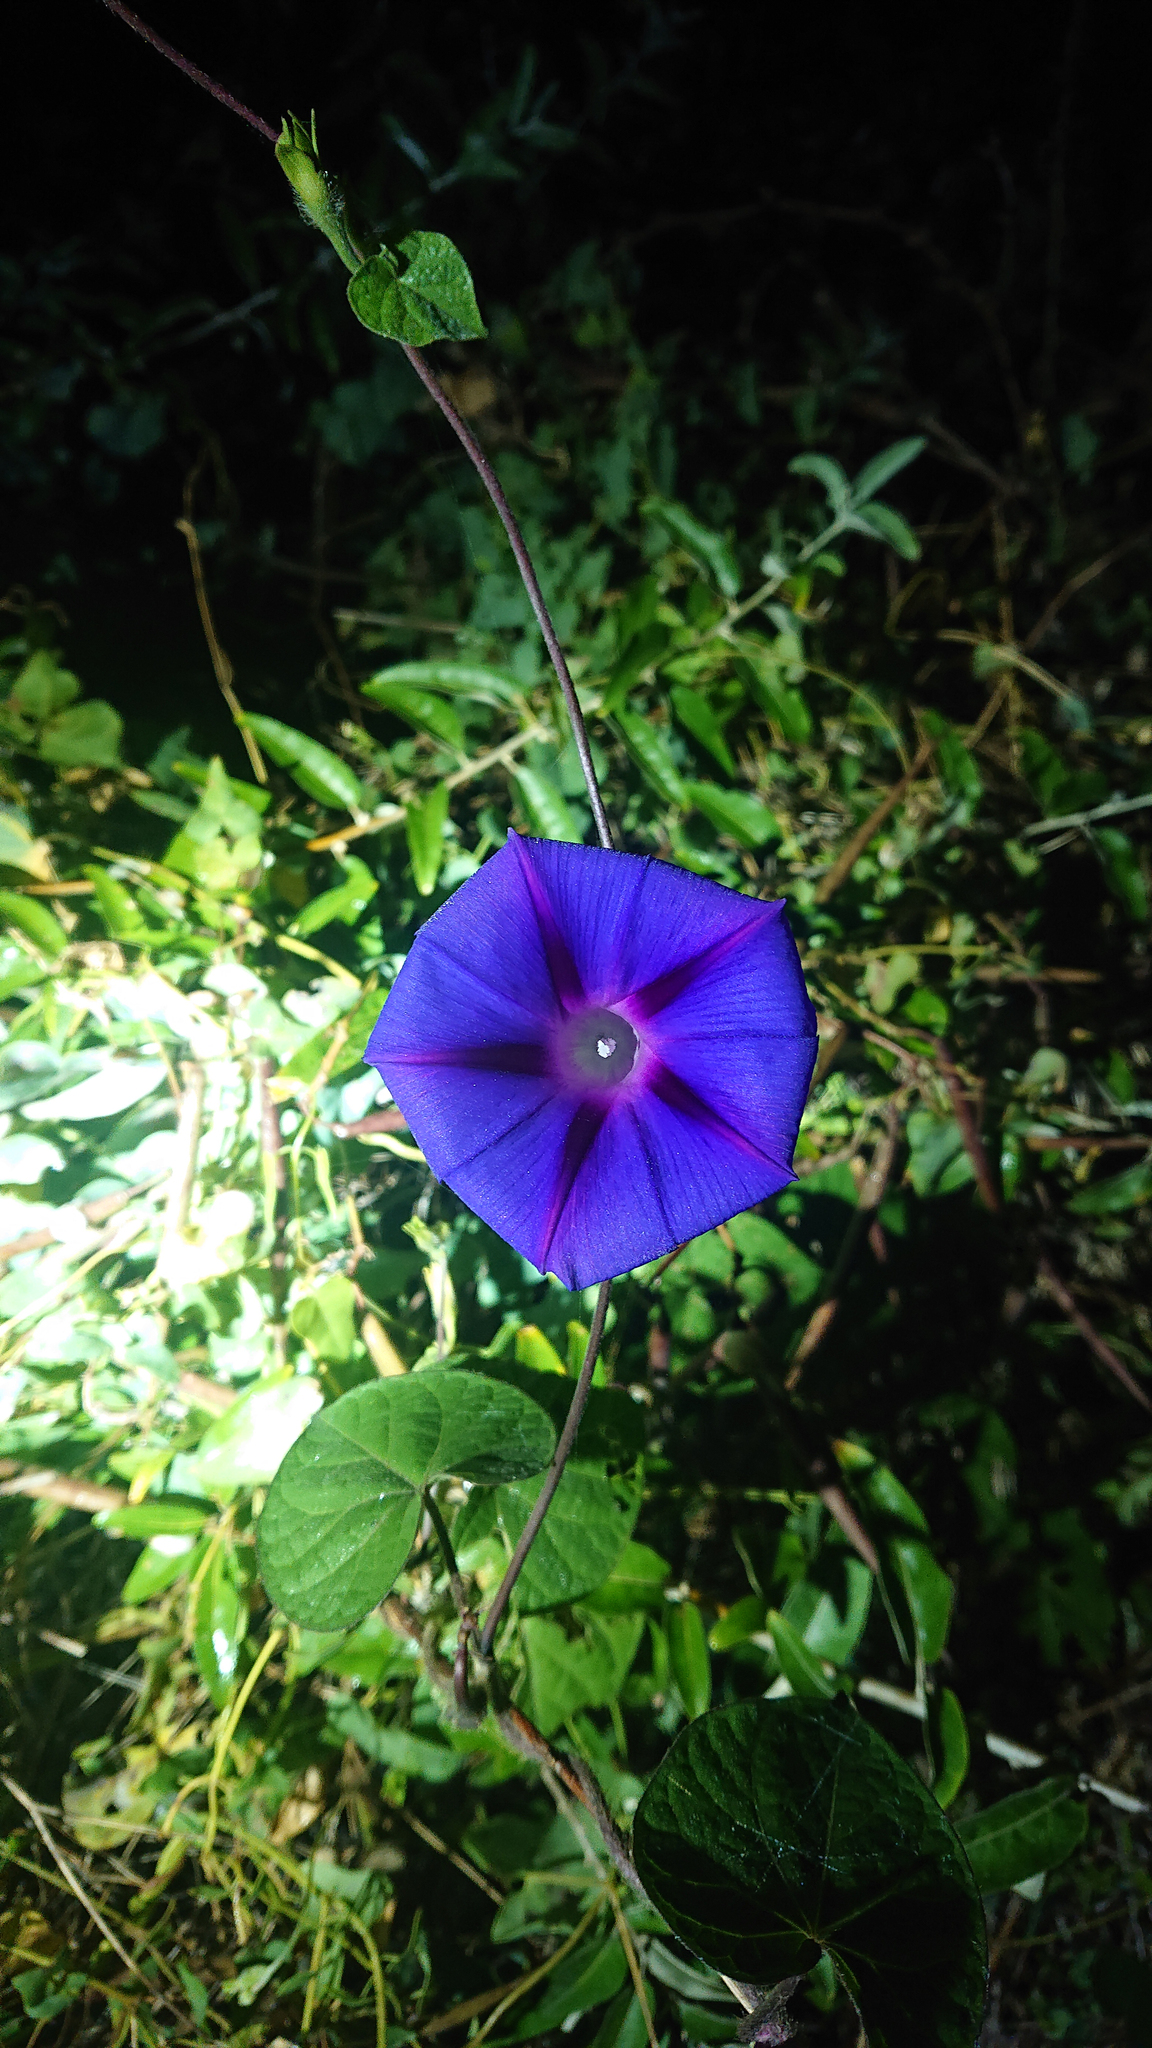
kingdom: Plantae
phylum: Tracheophyta
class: Magnoliopsida
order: Solanales
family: Convolvulaceae
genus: Ipomoea
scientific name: Ipomoea purpurea
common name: Common morning-glory
